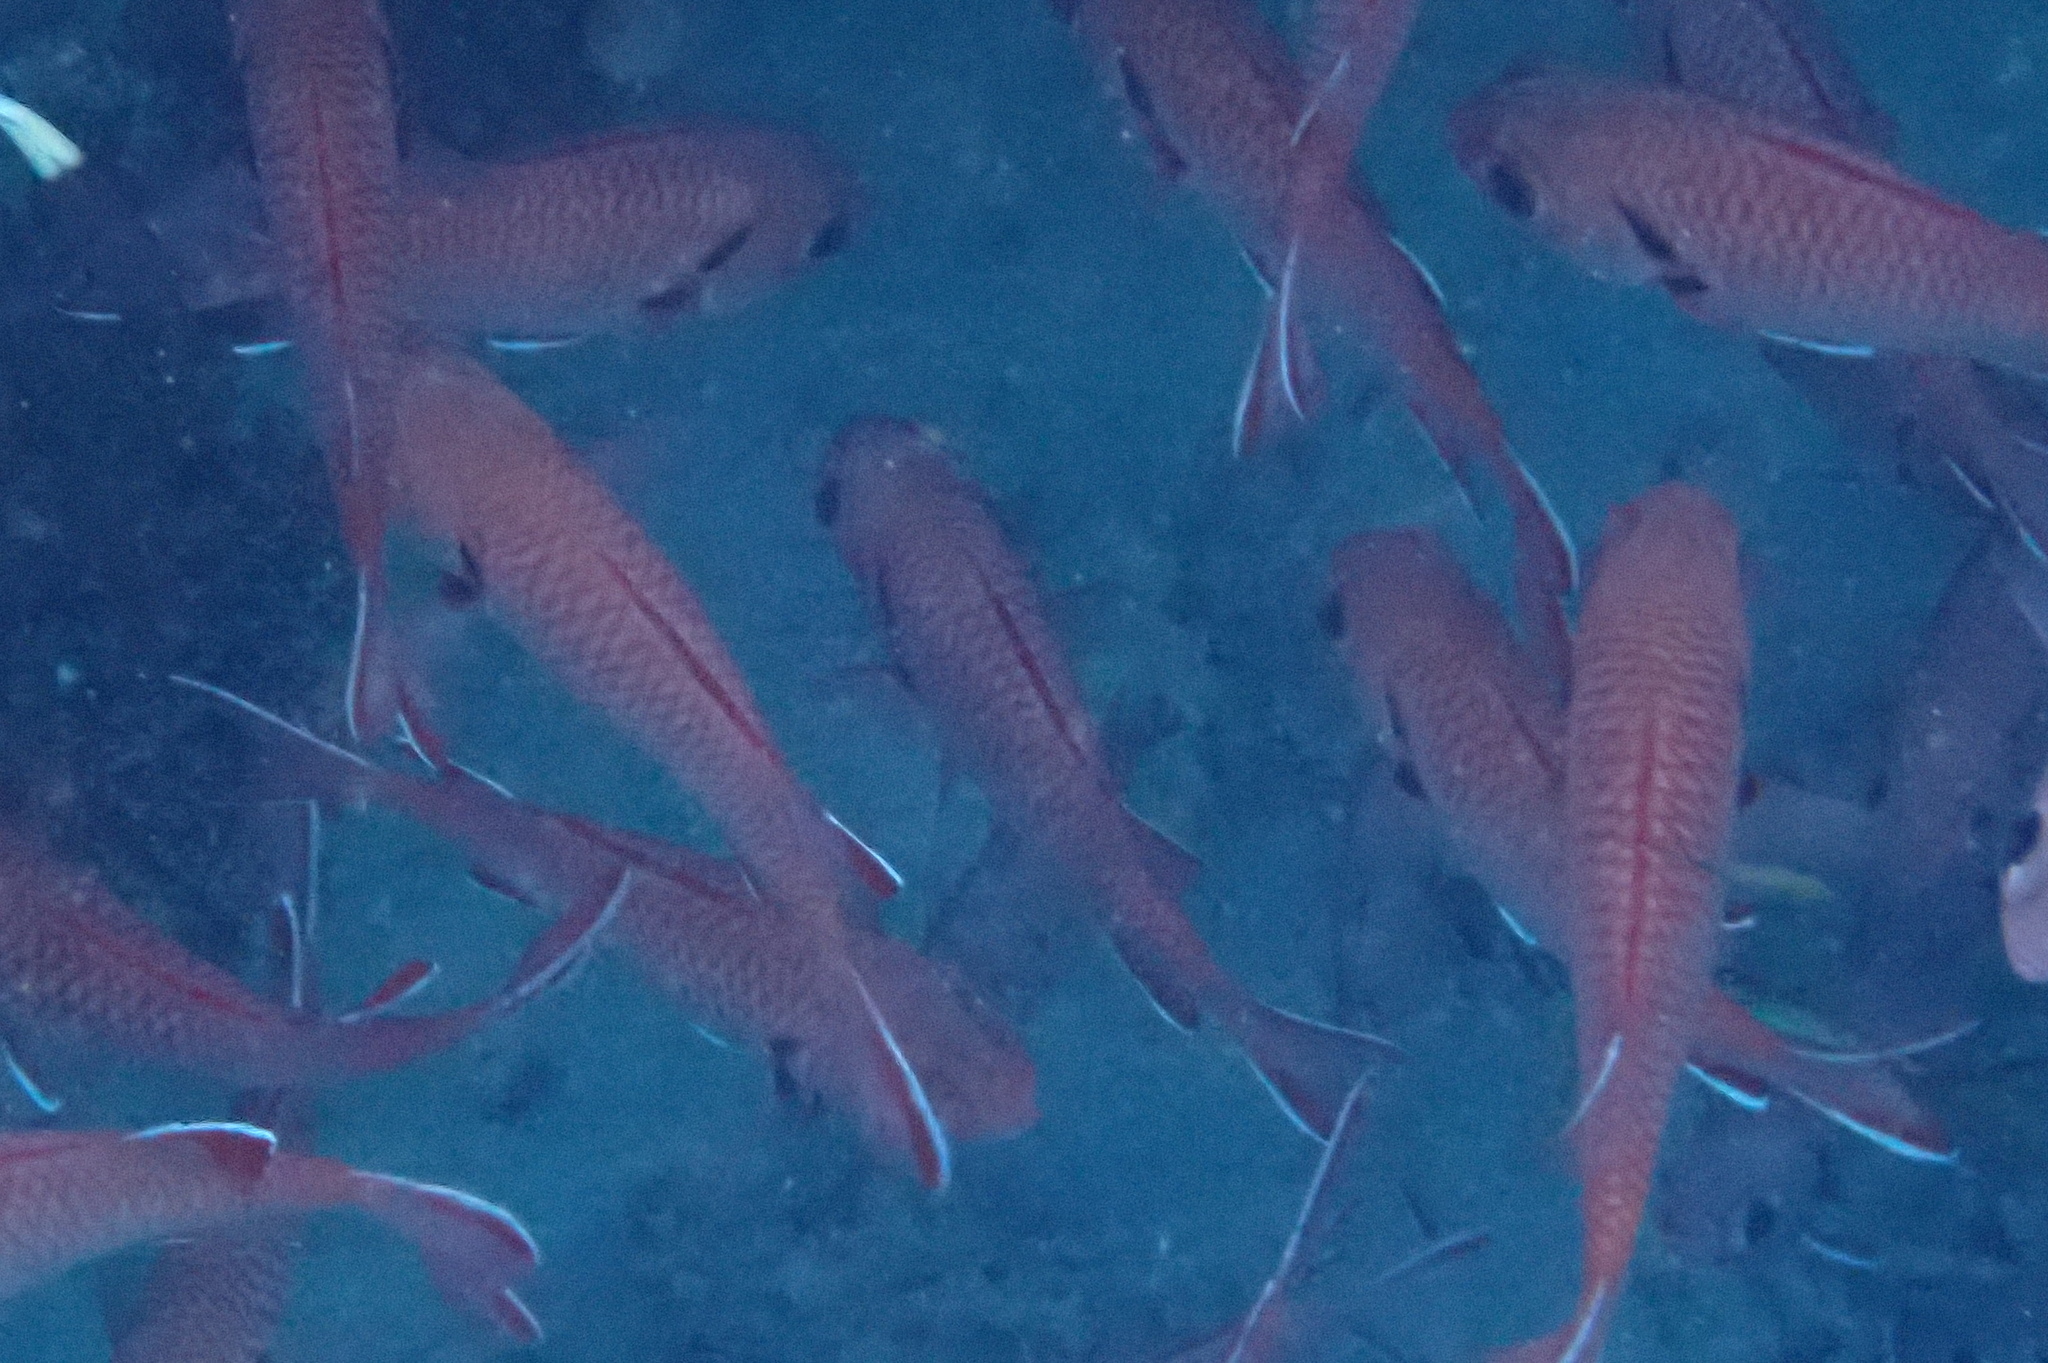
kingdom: Animalia
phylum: Chordata
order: Beryciformes
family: Holocentridae
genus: Myripristis
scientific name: Myripristis murdjan
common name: Big-eye soldierfish
